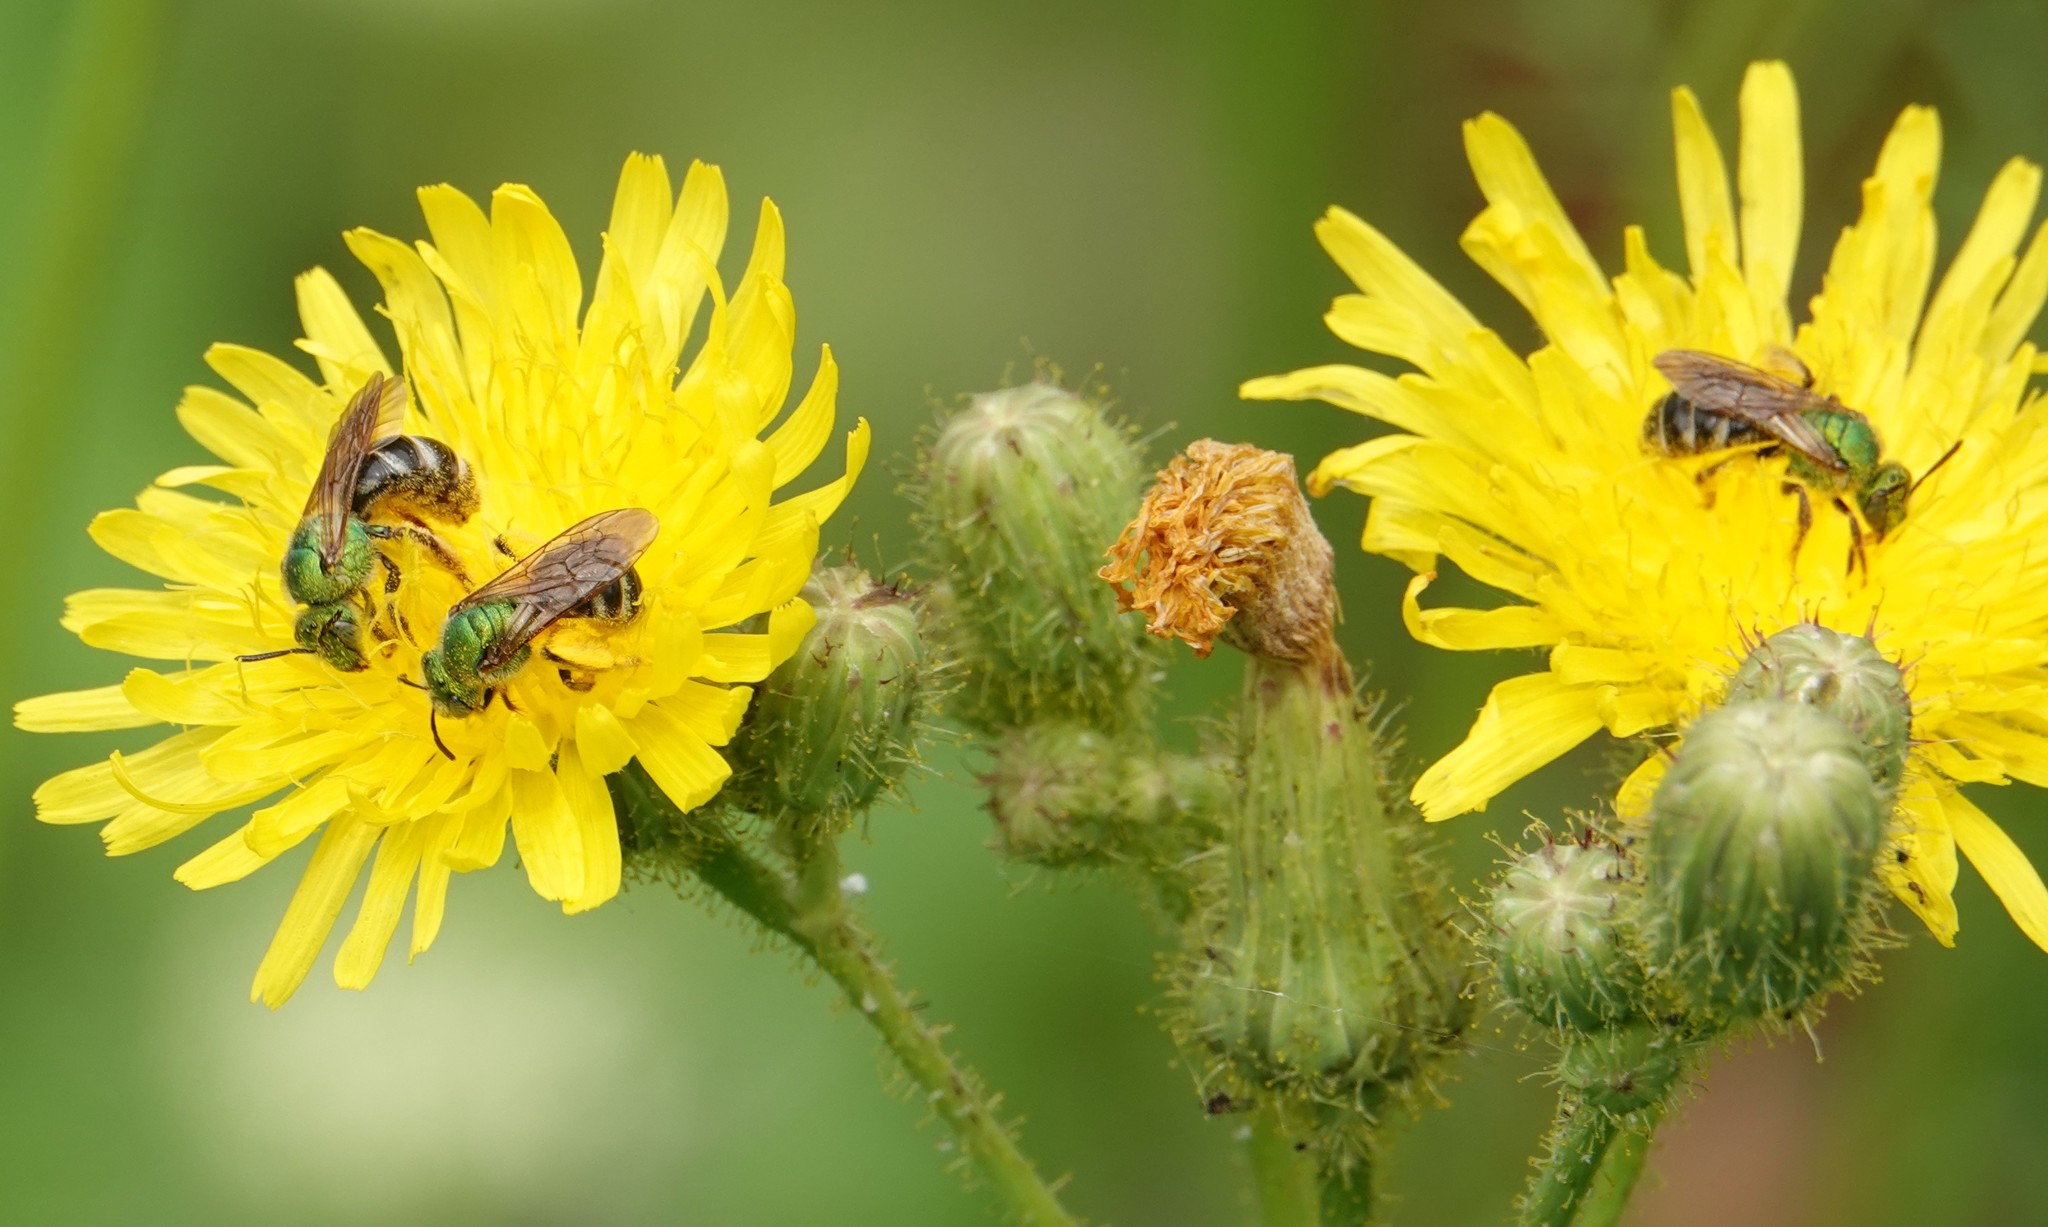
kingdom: Animalia
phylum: Arthropoda
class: Insecta
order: Hymenoptera
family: Halictidae
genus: Agapostemon
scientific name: Agapostemon virescens
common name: Bicolored striped sweat bee
